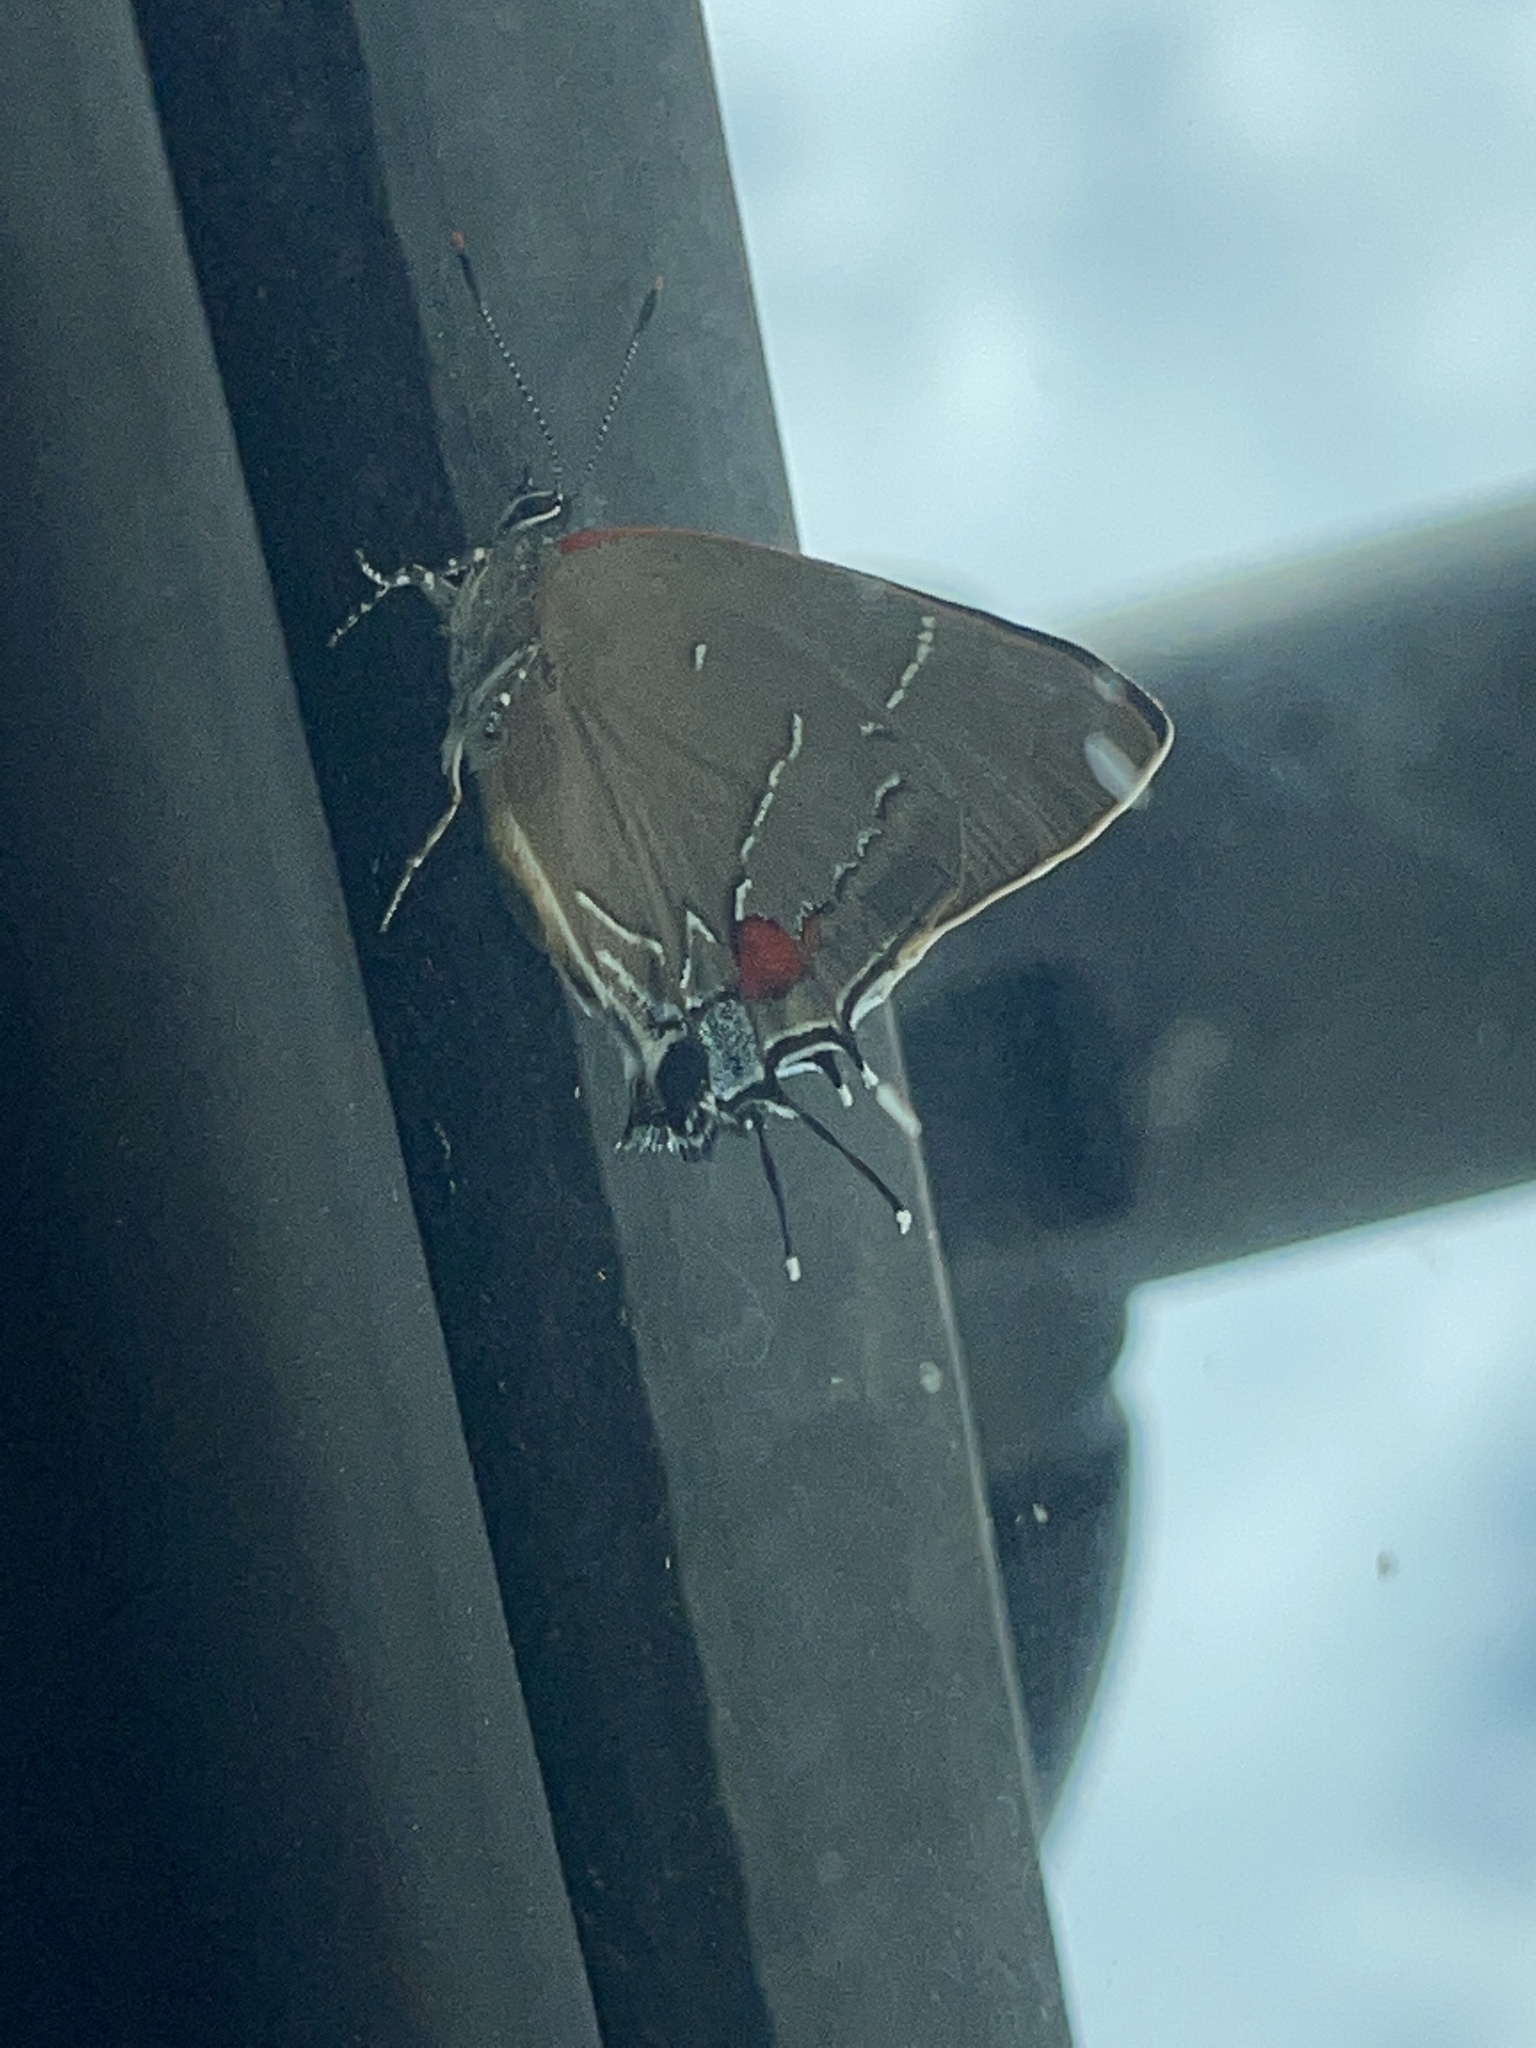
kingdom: Animalia
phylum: Arthropoda
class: Insecta
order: Lepidoptera
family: Lycaenidae
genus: Parrhasius
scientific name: Parrhasius m-album
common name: White m hairstreak
